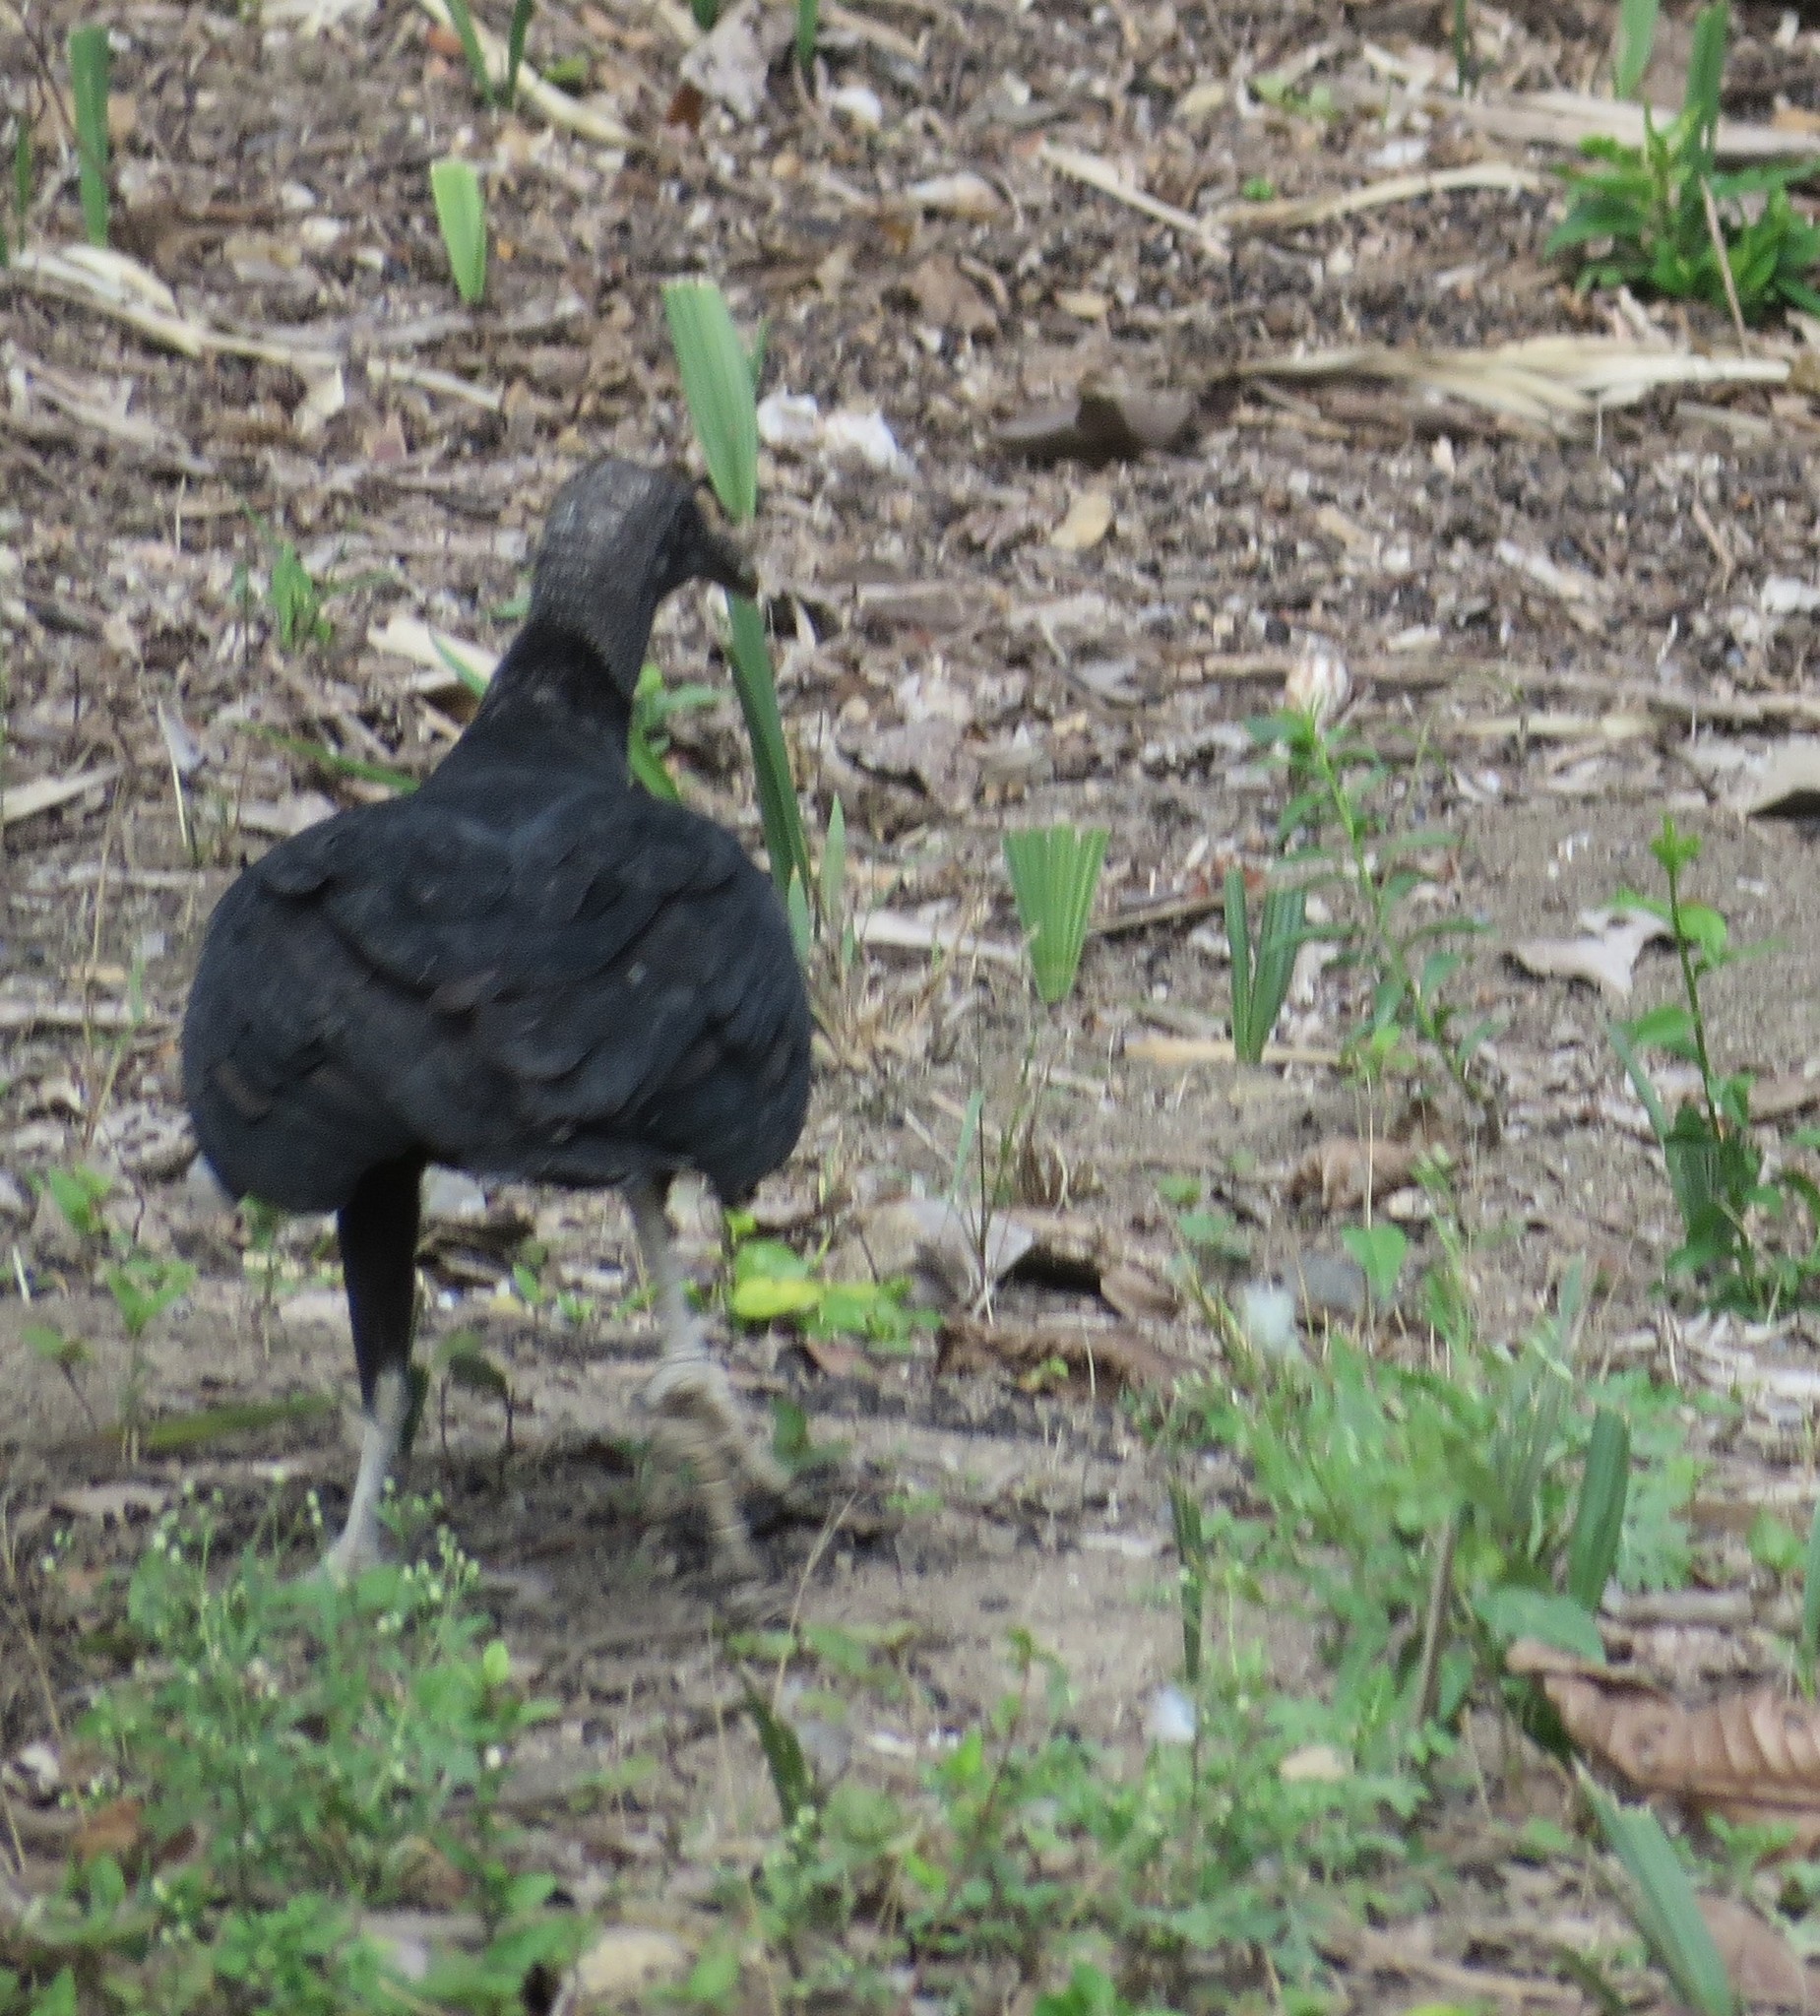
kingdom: Animalia
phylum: Chordata
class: Aves
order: Accipitriformes
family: Cathartidae
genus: Coragyps
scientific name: Coragyps atratus
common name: Black vulture
